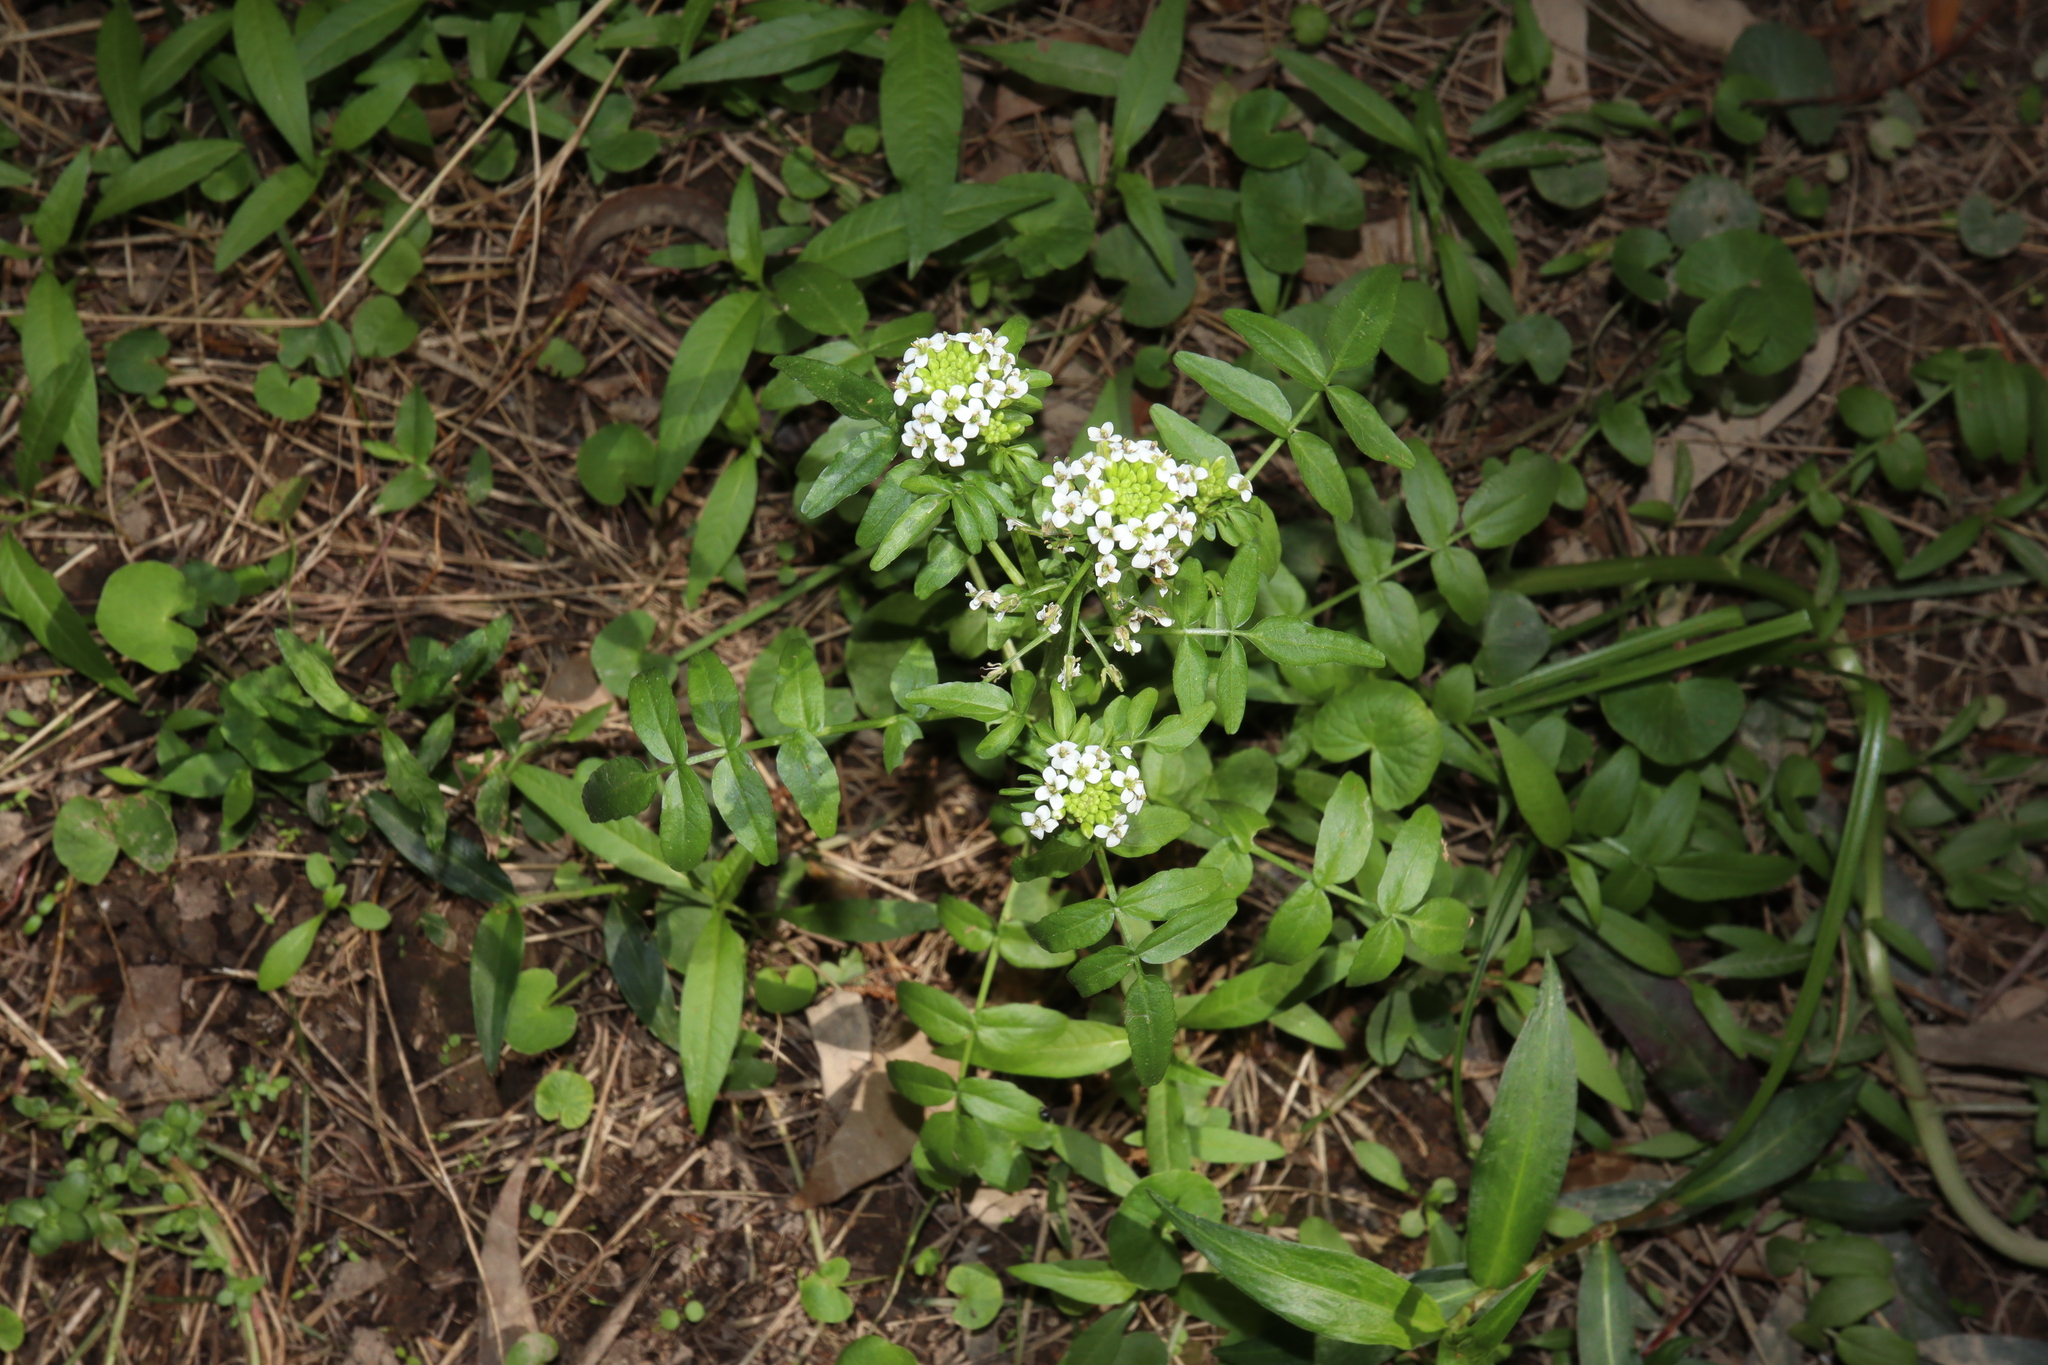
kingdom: Plantae
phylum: Tracheophyta
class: Magnoliopsida
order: Brassicales
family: Brassicaceae
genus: Nasturtium
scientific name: Nasturtium officinale
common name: Watercress
